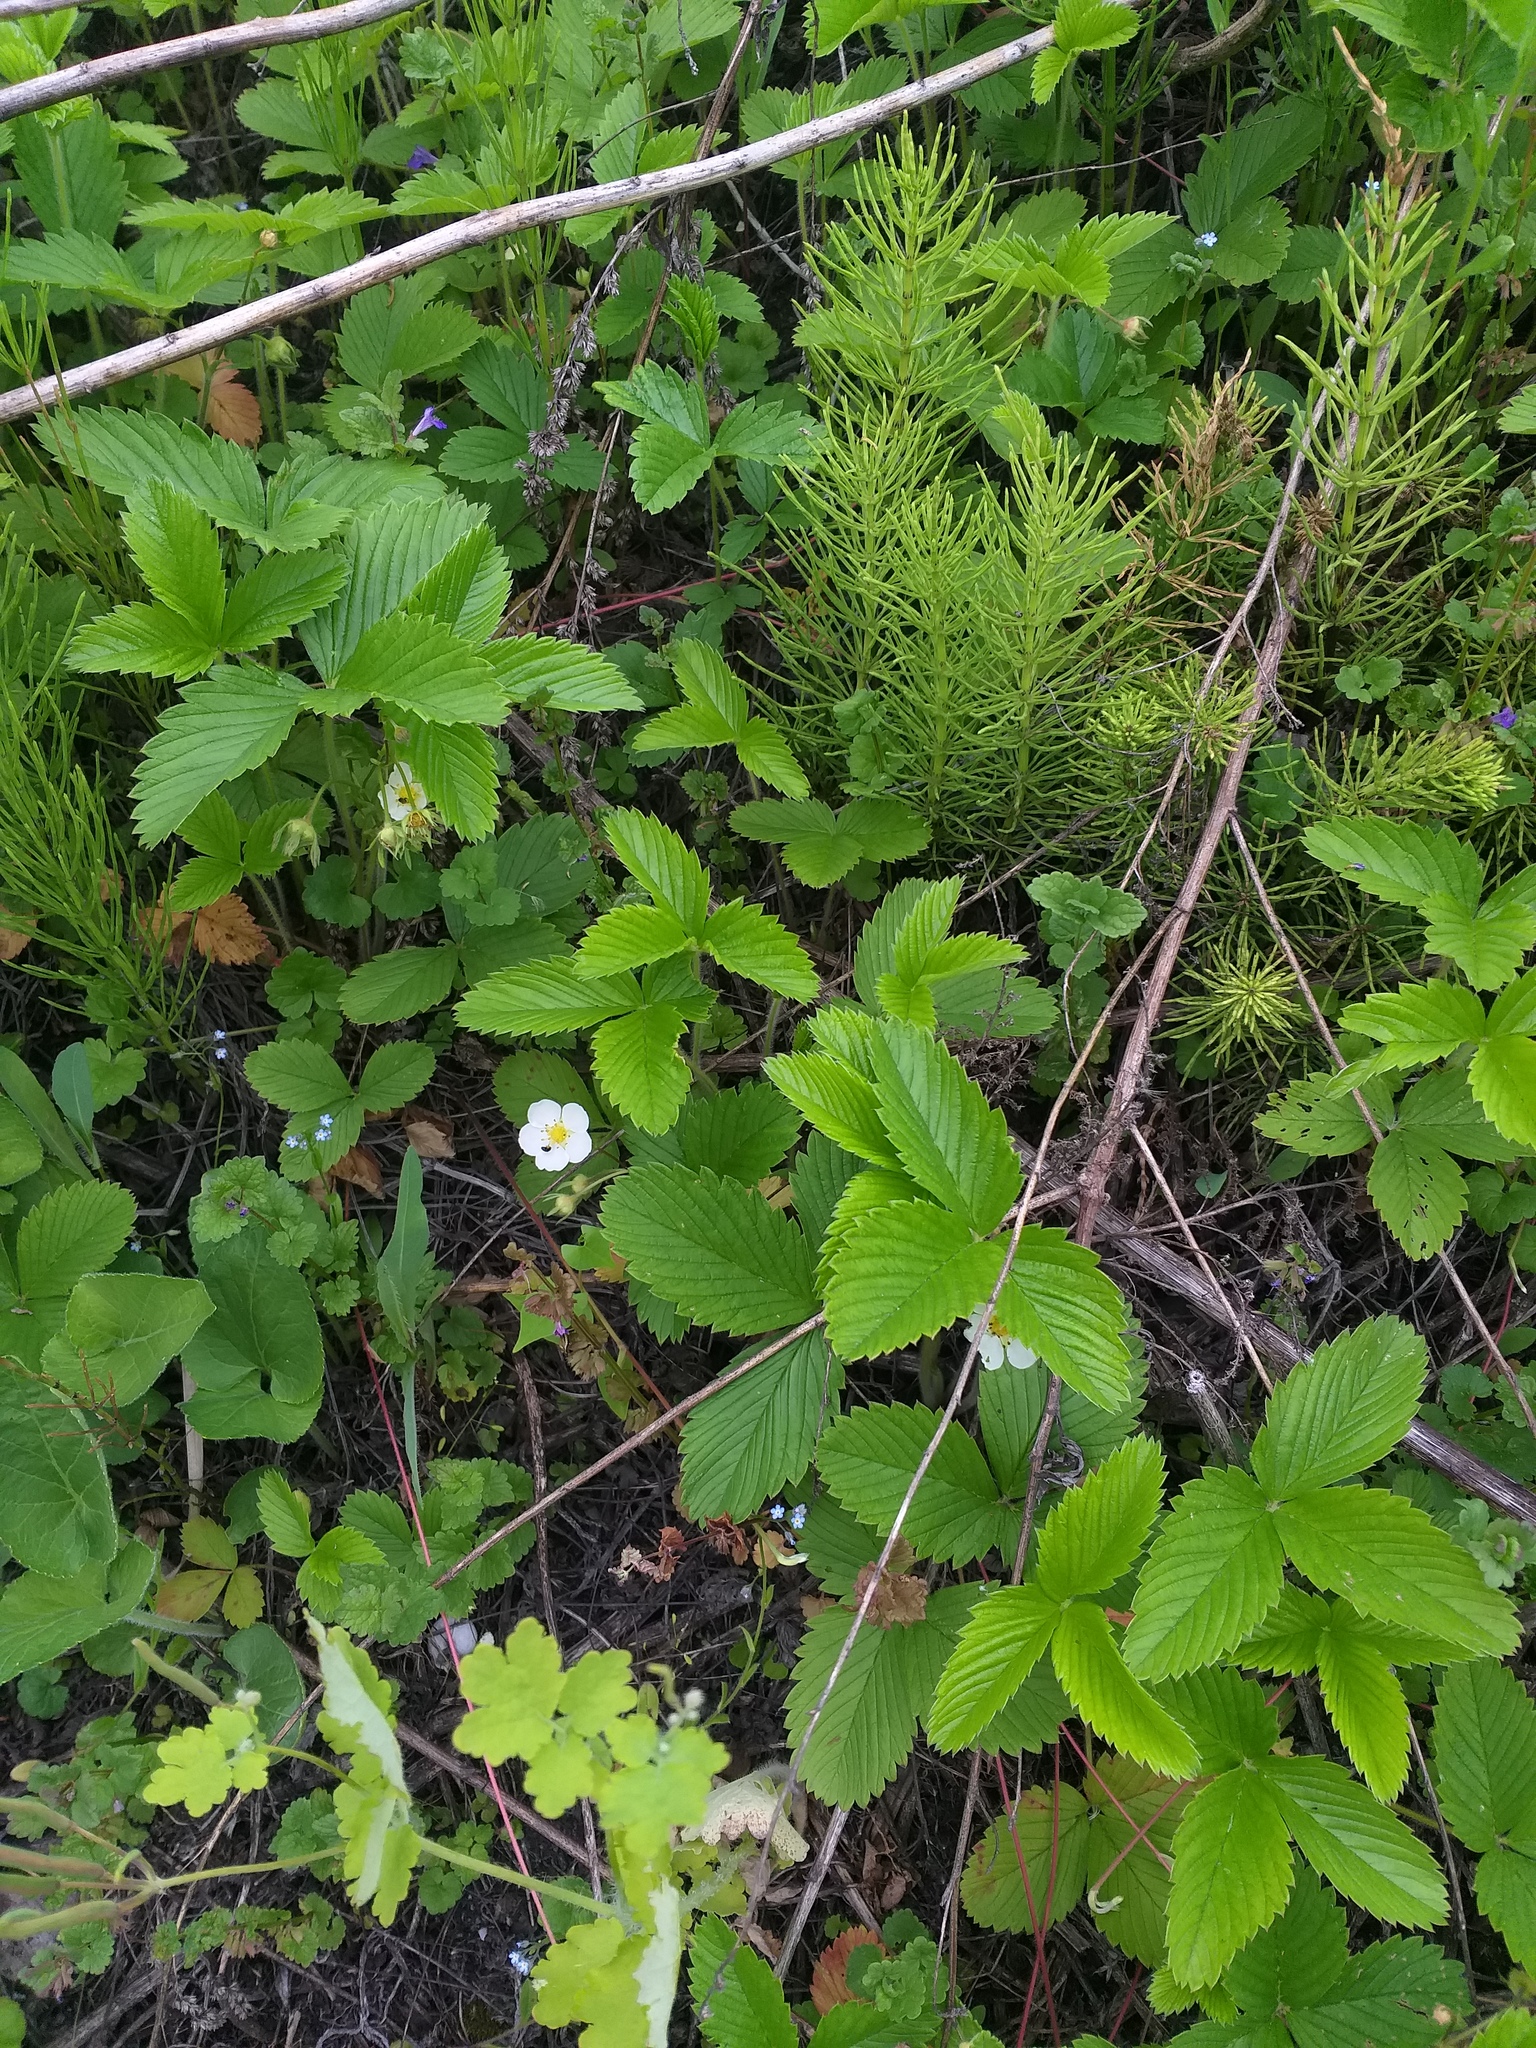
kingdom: Plantae
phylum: Tracheophyta
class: Magnoliopsida
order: Rosales
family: Rosaceae
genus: Fragaria
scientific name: Fragaria viridis
